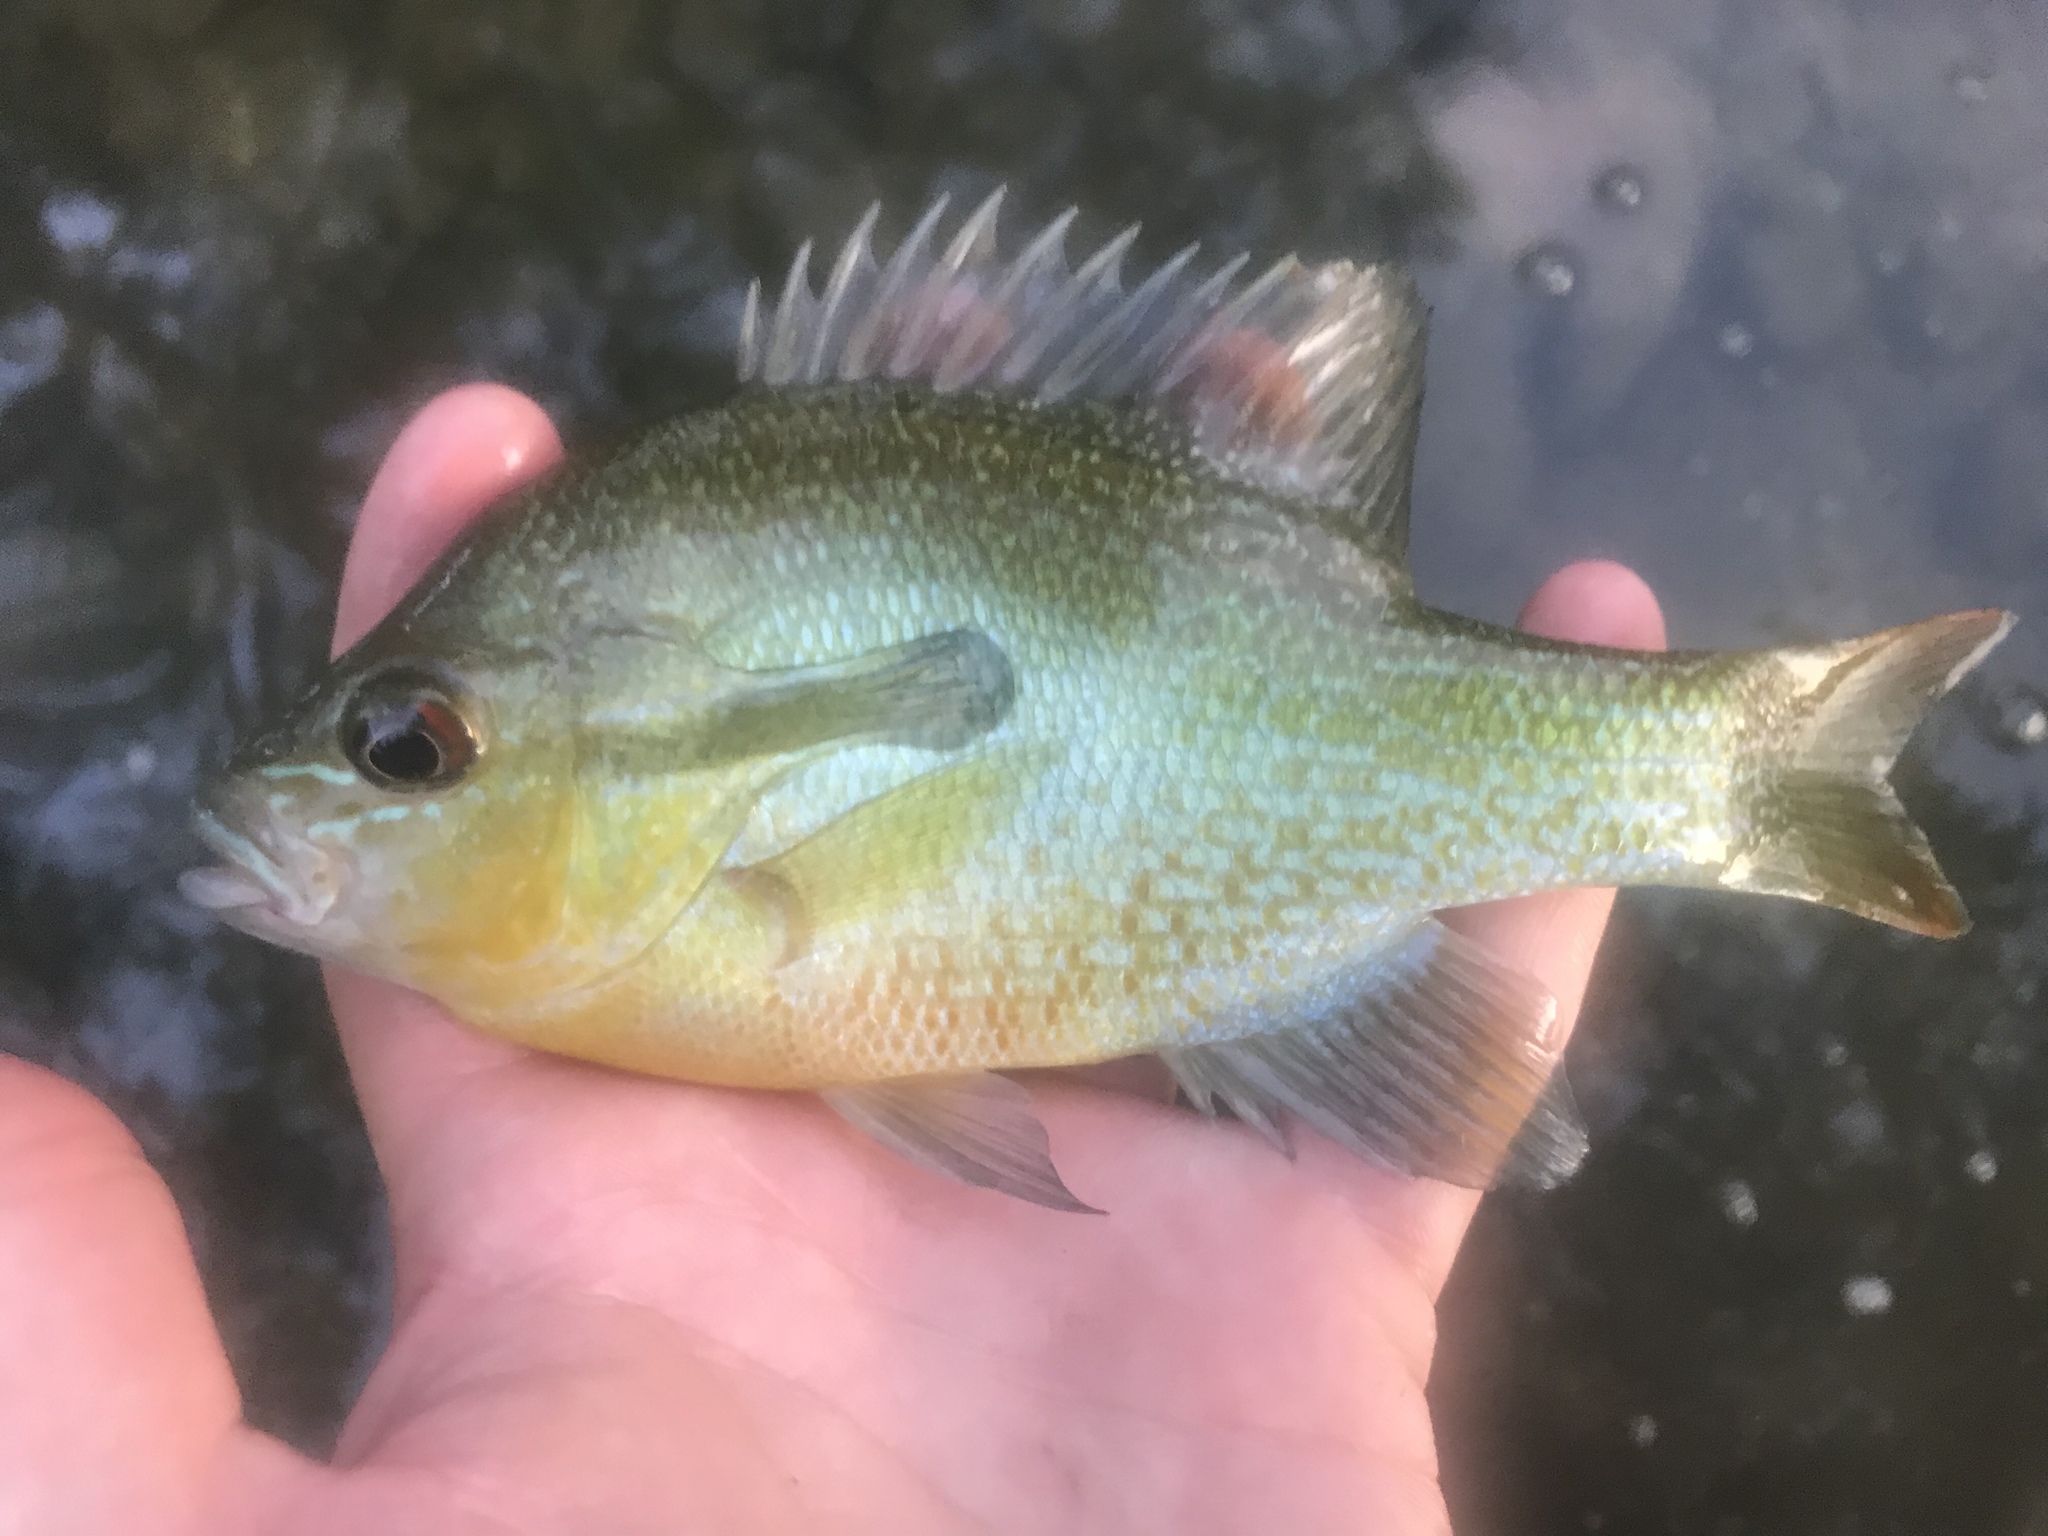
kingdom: Animalia
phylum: Chordata
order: Perciformes
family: Centrarchidae
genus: Lepomis
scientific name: Lepomis auritus
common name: Redbreast sunfish
